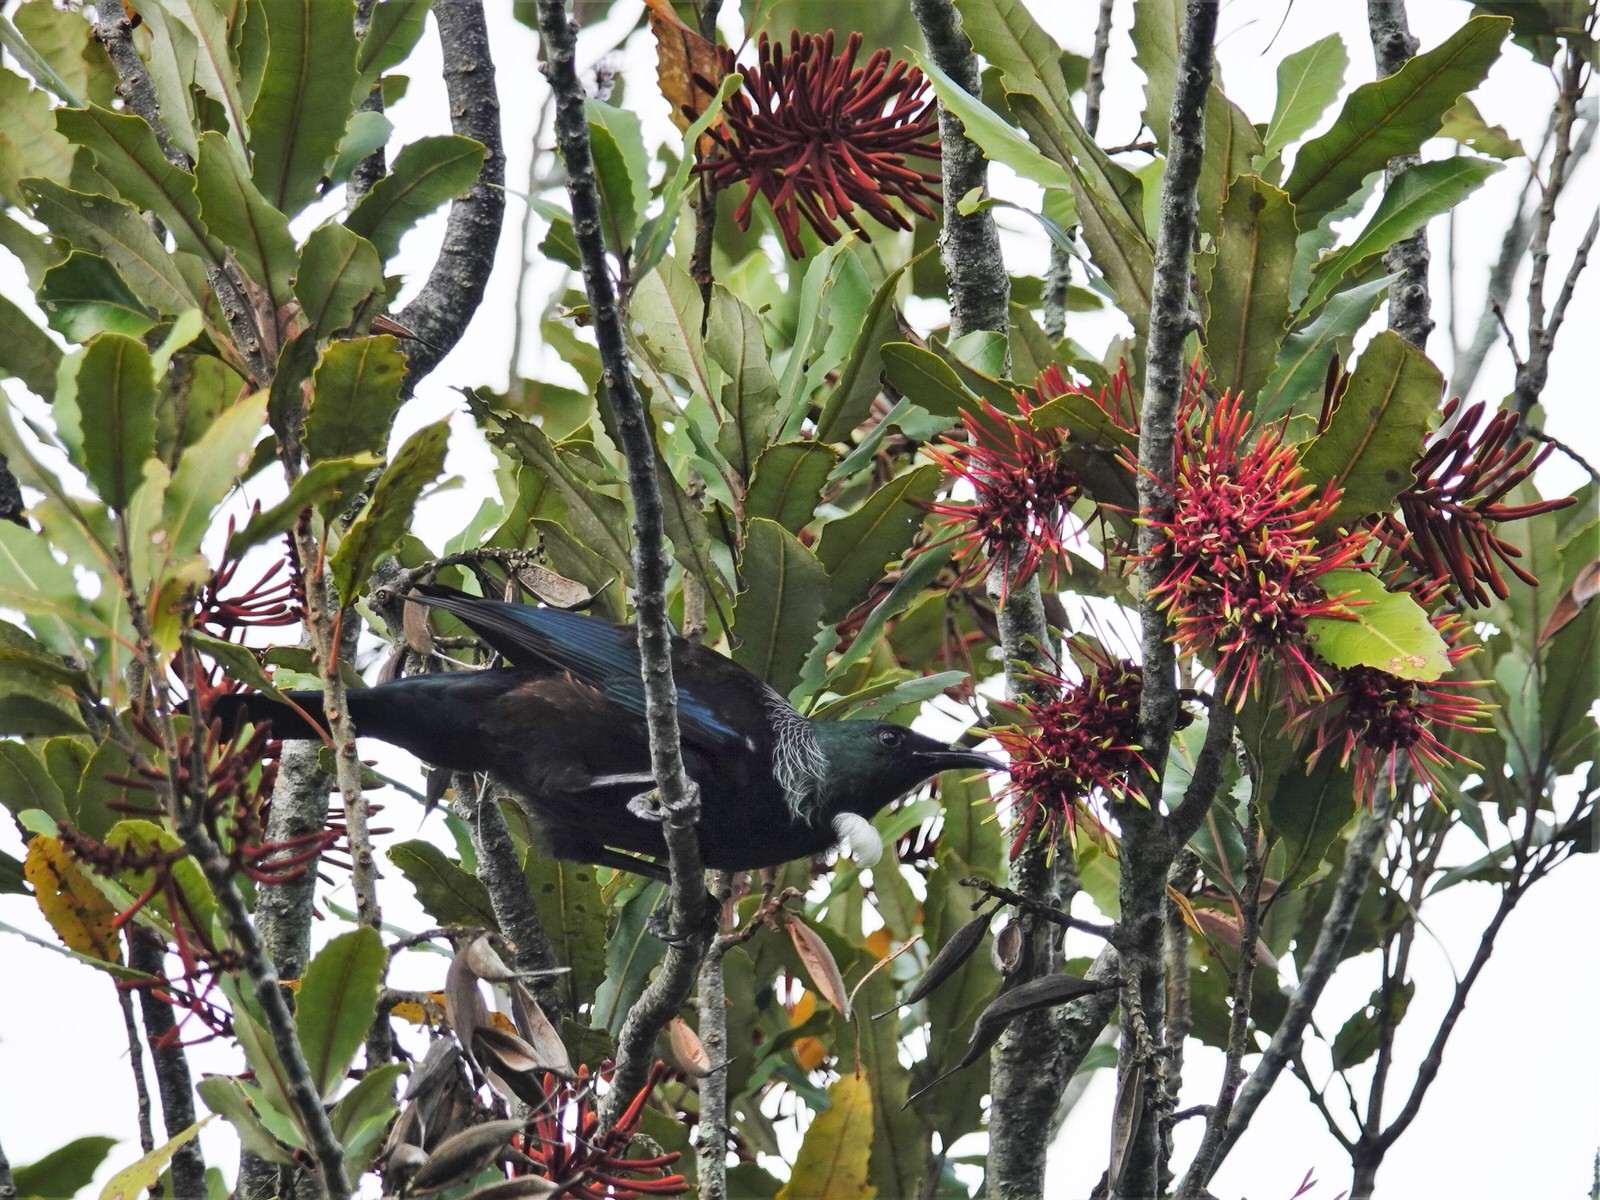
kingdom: Animalia
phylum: Chordata
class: Aves
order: Passeriformes
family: Meliphagidae
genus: Prosthemadera
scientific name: Prosthemadera novaeseelandiae
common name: Tui
